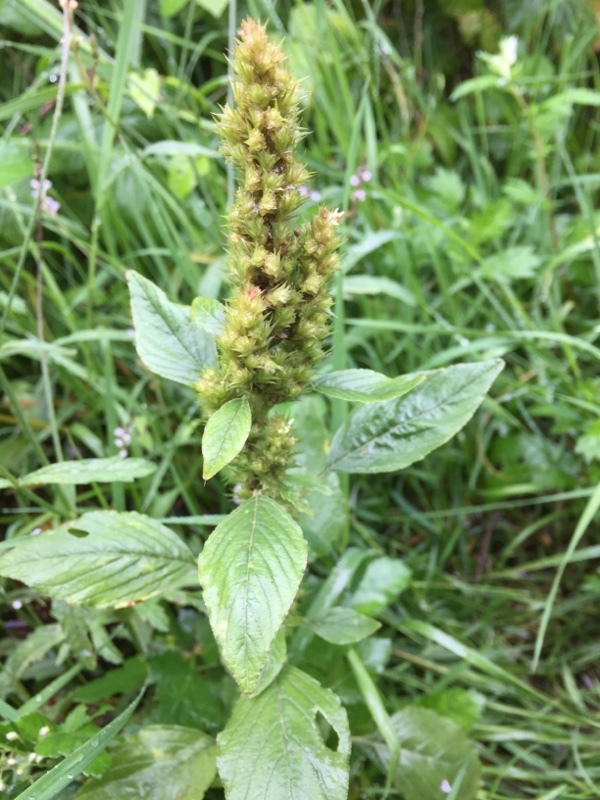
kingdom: Plantae
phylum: Tracheophyta
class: Magnoliopsida
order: Caryophyllales
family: Amaranthaceae
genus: Amaranthus
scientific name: Amaranthus retroflexus
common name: Redroot amaranth
